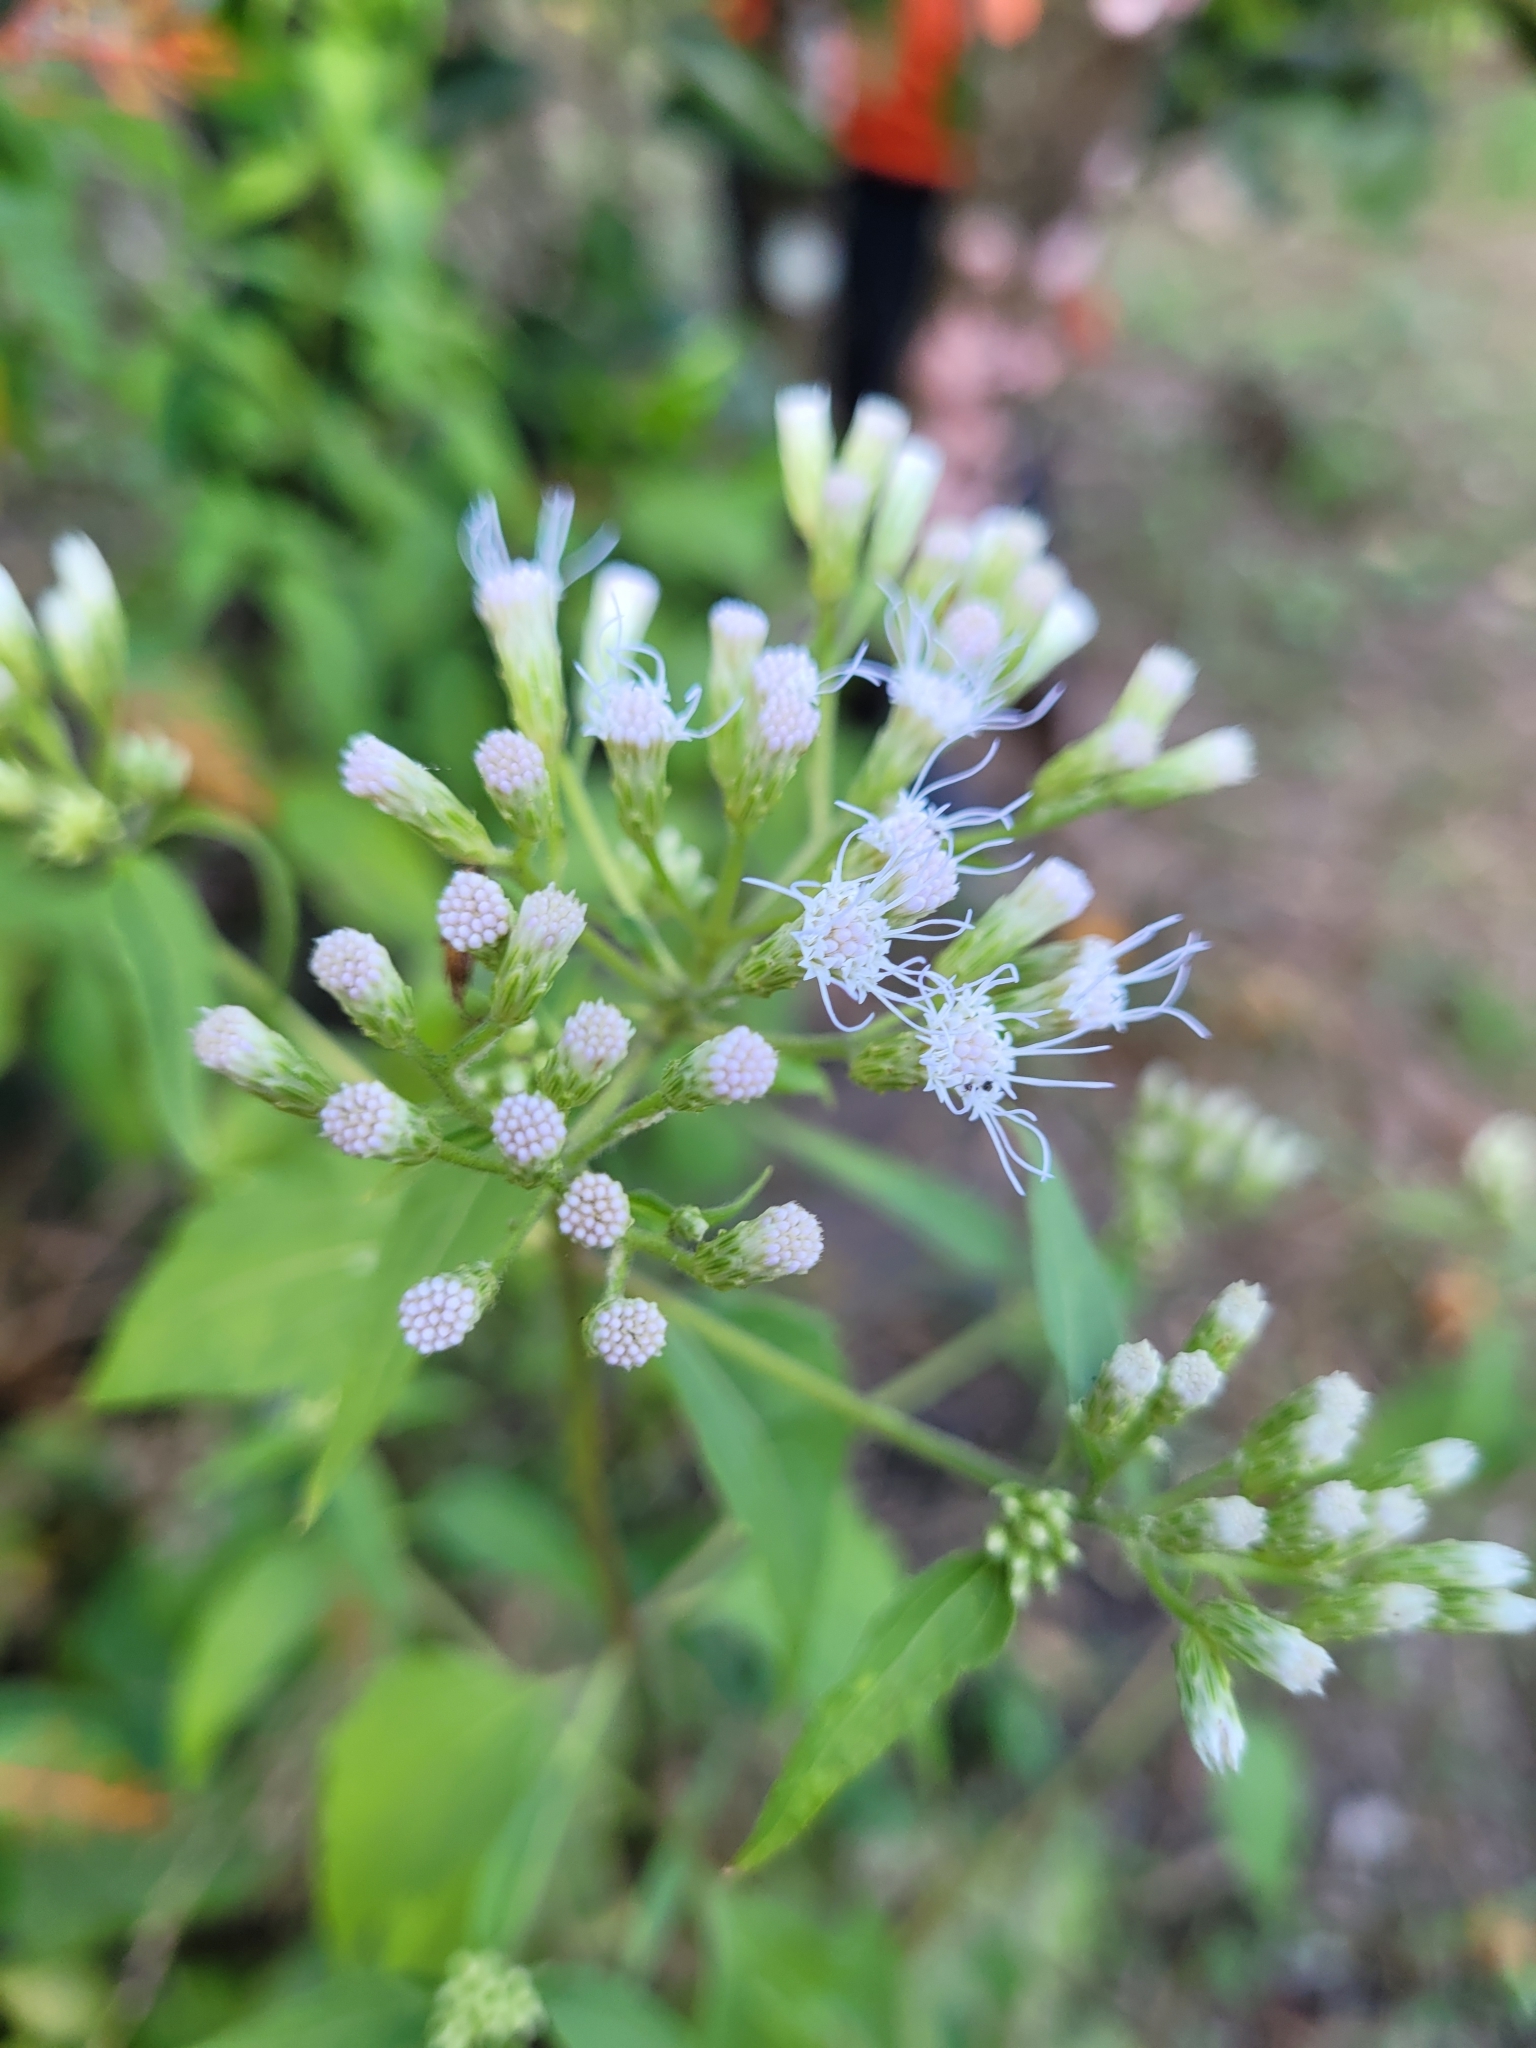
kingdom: Plantae
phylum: Tracheophyta
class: Magnoliopsida
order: Asterales
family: Asteraceae
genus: Chromolaena
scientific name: Chromolaena odorata
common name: Siamweed
